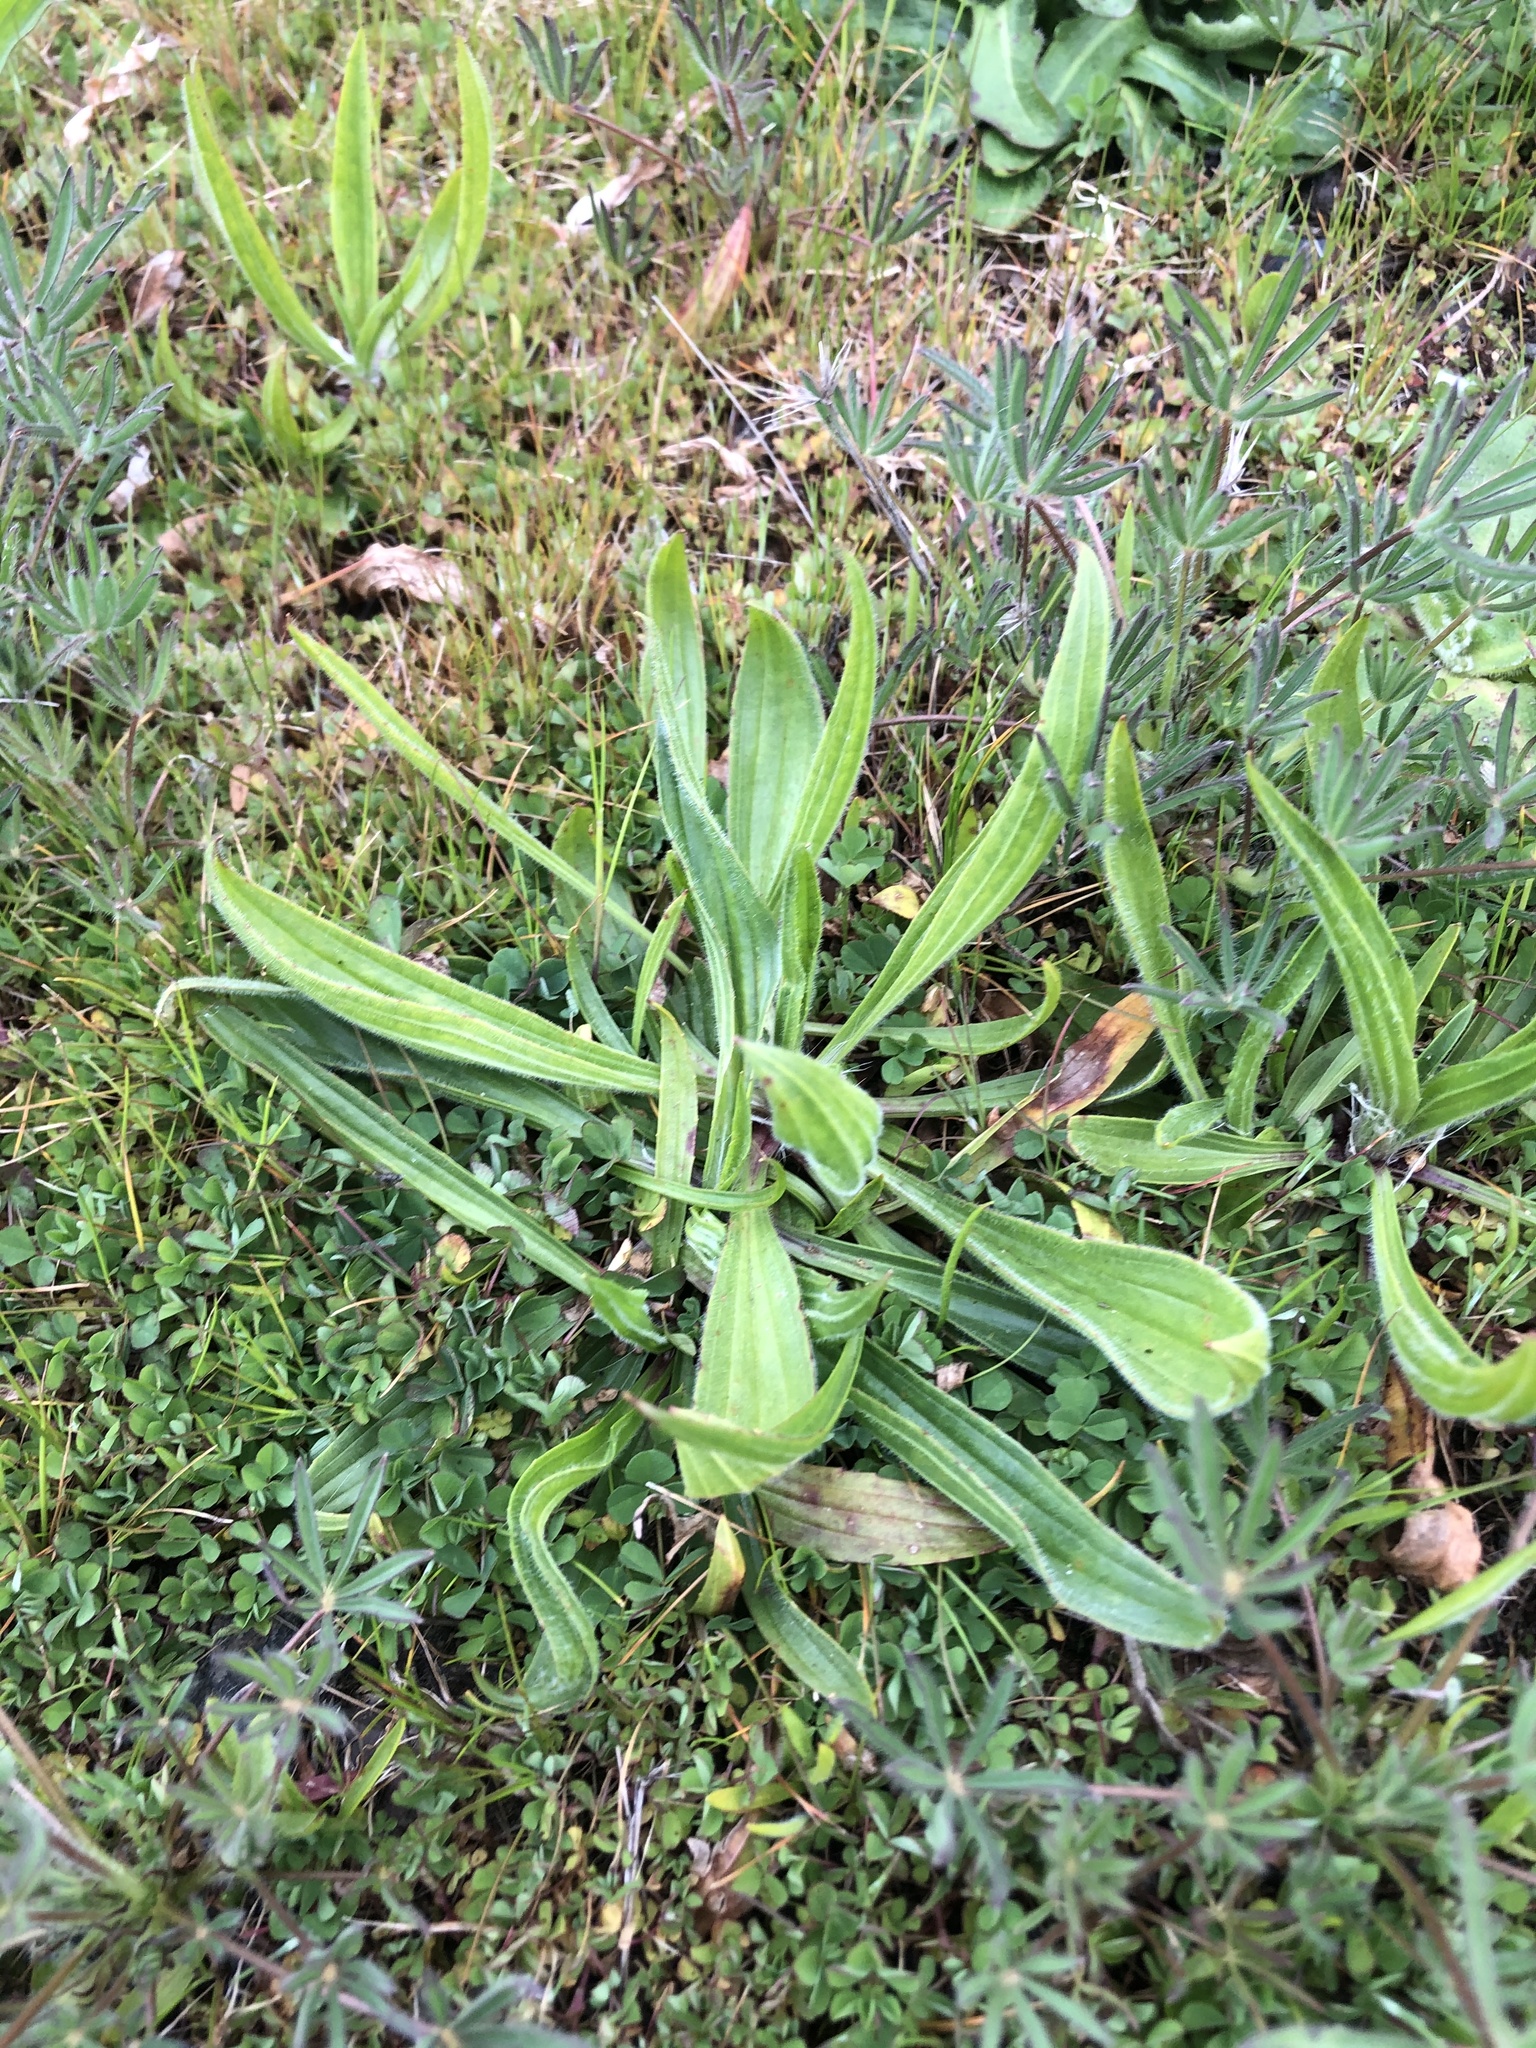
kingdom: Plantae
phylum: Tracheophyta
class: Magnoliopsida
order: Lamiales
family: Plantaginaceae
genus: Plantago
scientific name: Plantago lanceolata
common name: Ribwort plantain
